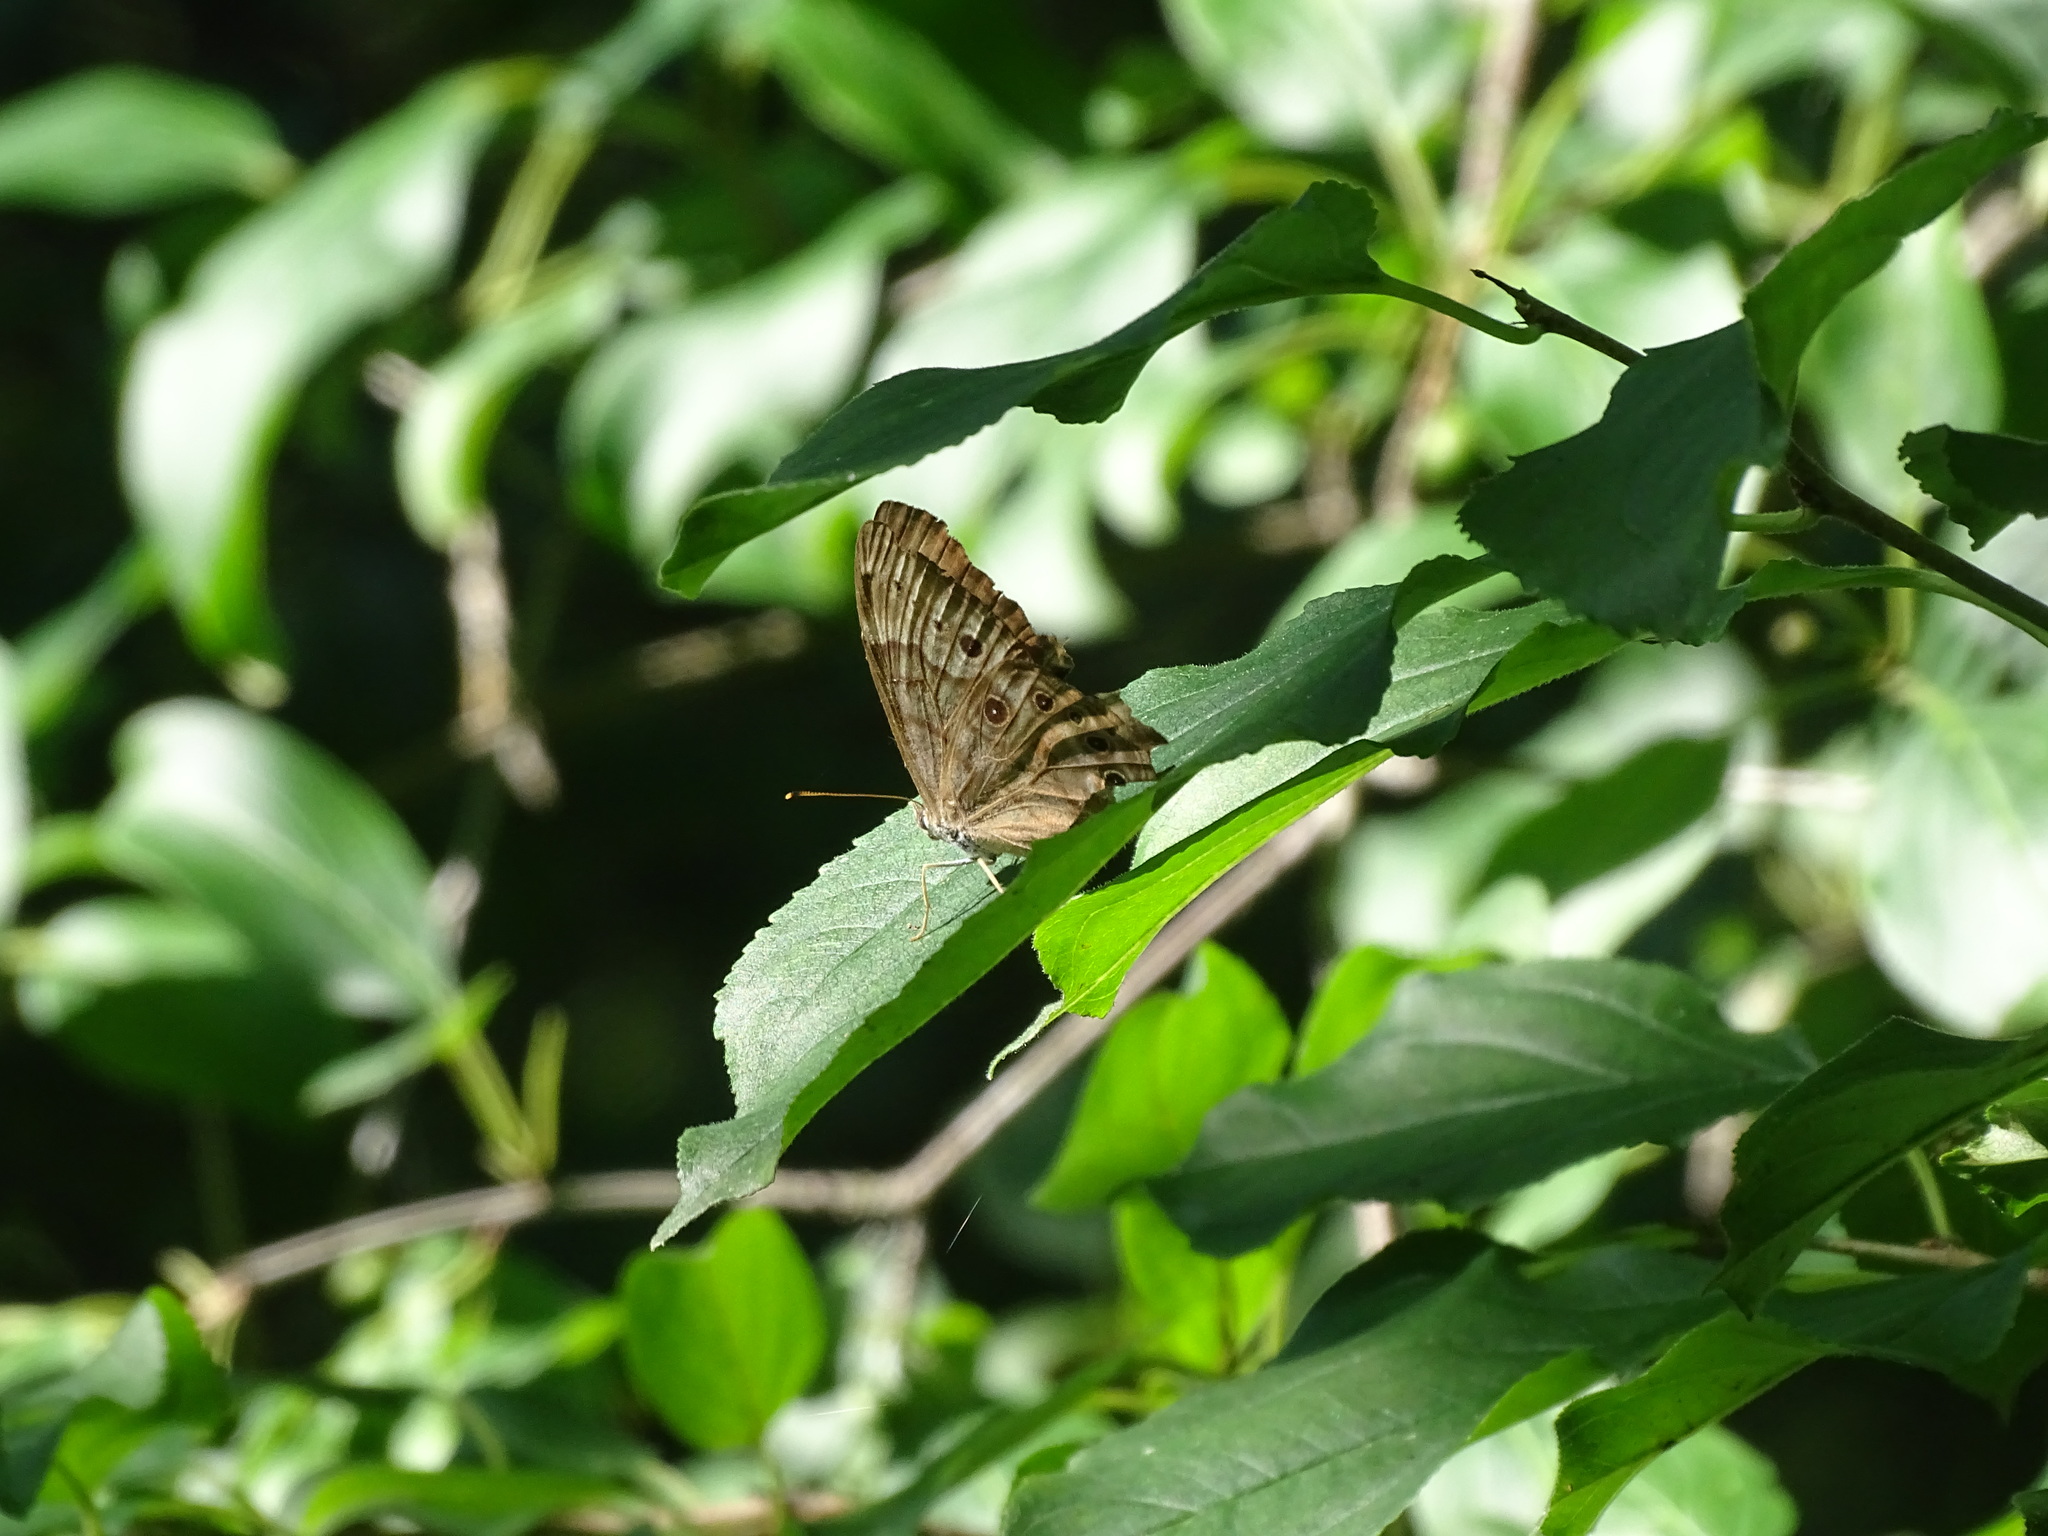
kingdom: Animalia
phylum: Arthropoda
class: Insecta
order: Lepidoptera
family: Nymphalidae
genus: Lethe
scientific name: Lethe anthedon
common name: Northern pearly-eye
